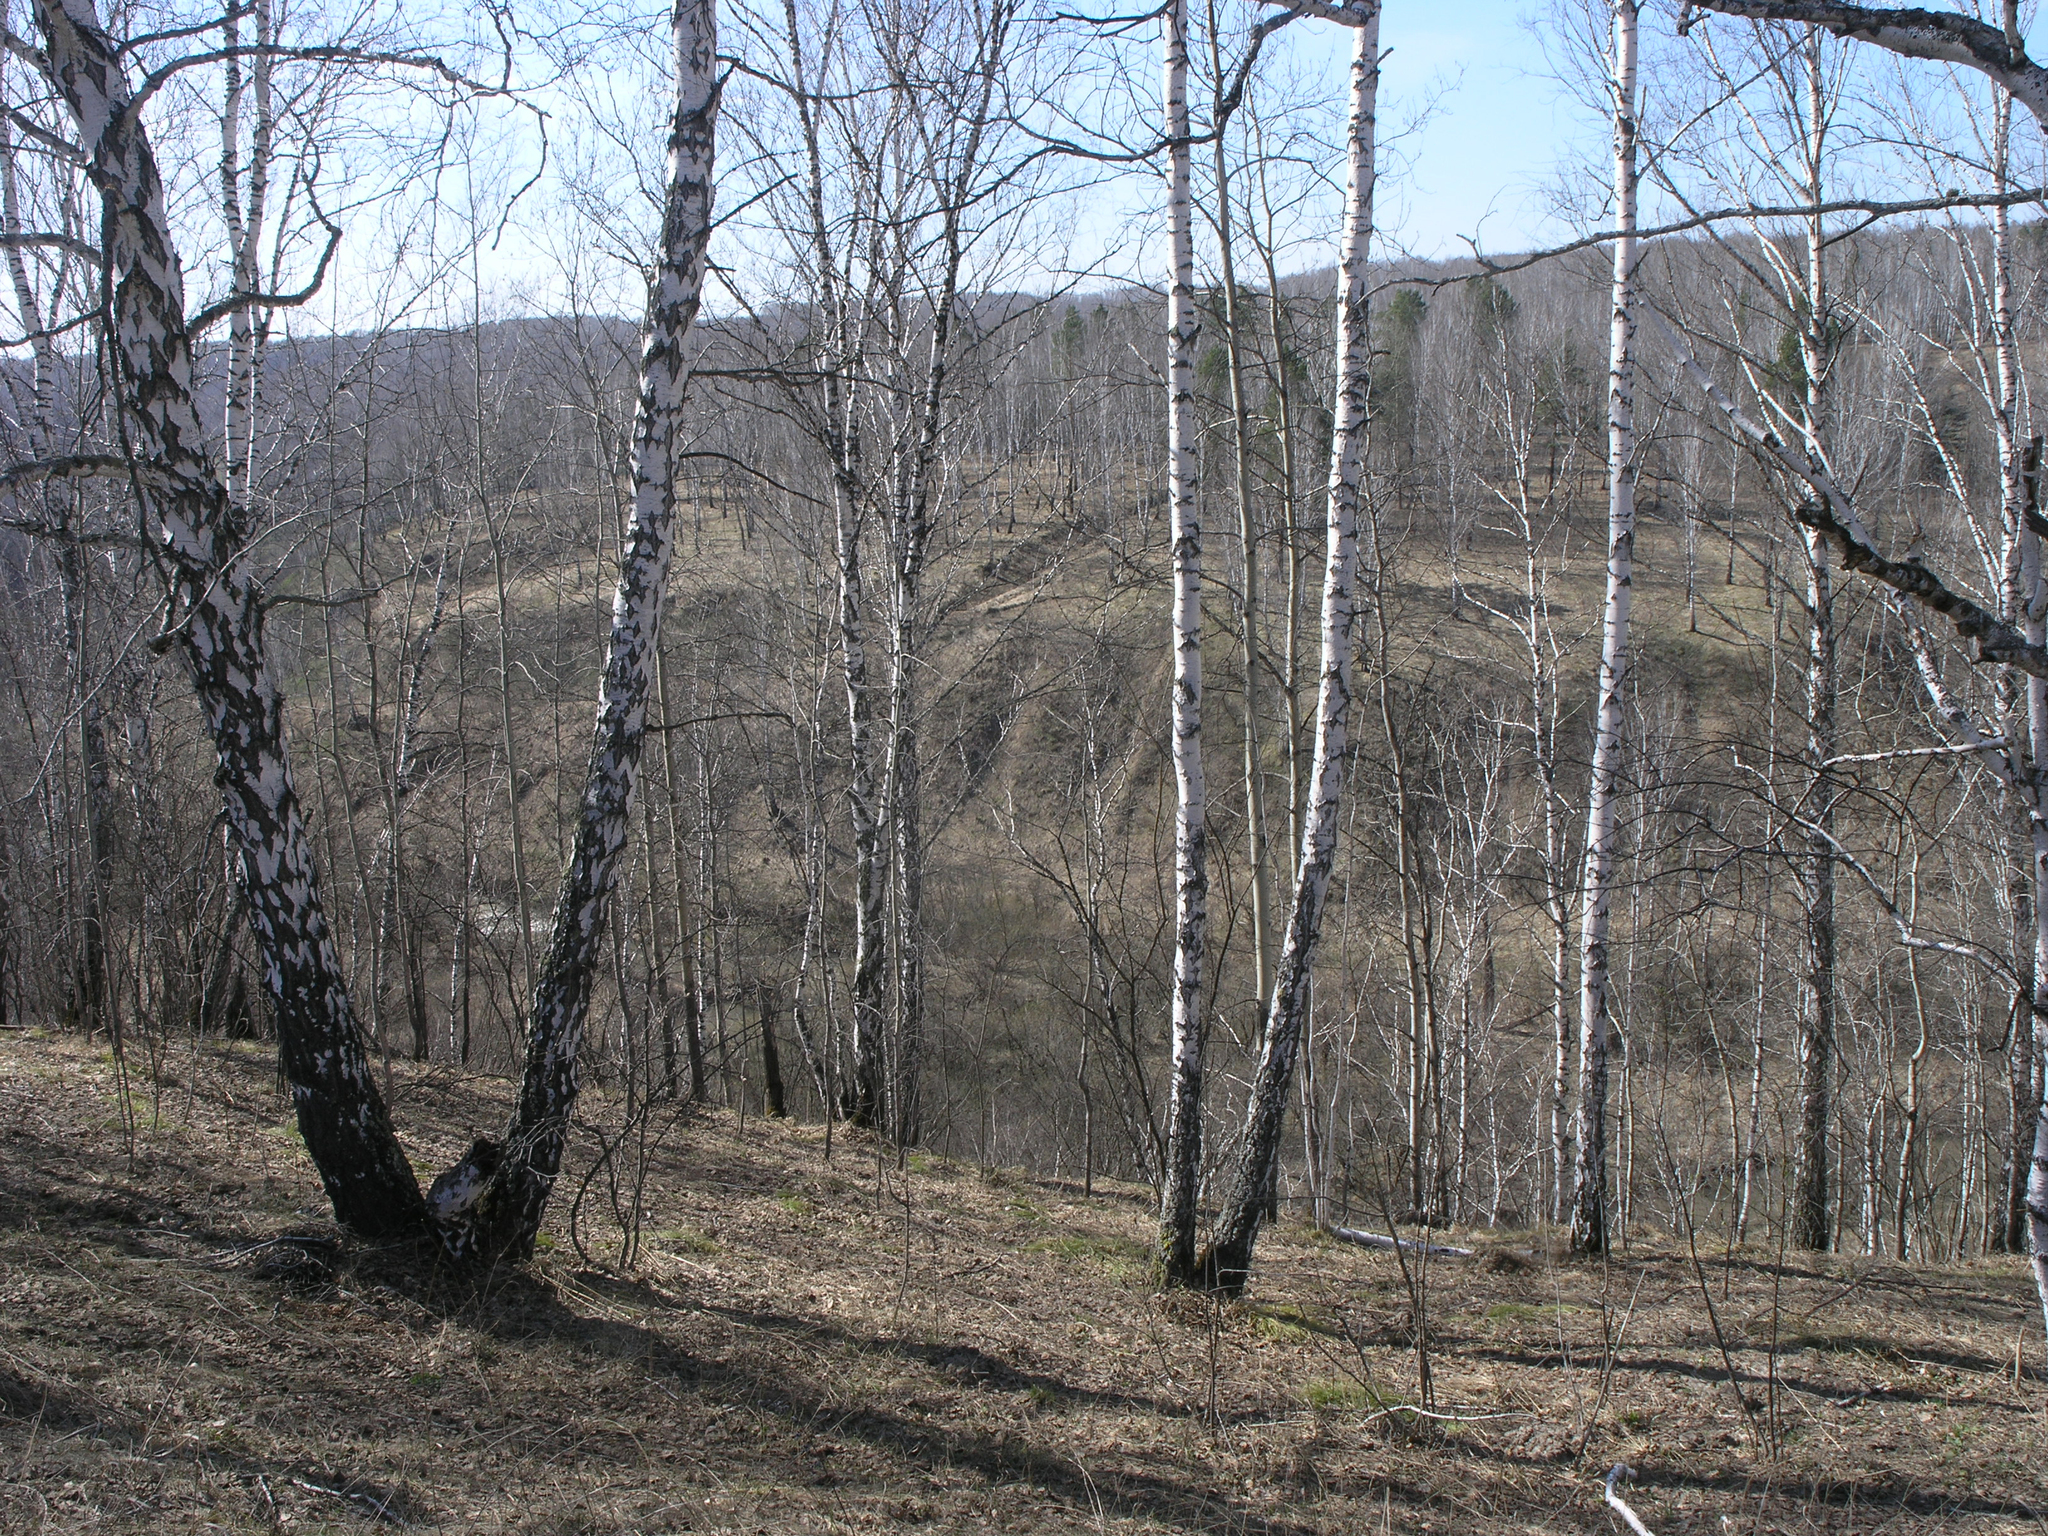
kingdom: Plantae
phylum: Tracheophyta
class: Magnoliopsida
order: Fagales
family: Betulaceae
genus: Betula
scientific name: Betula pendula
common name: Silver birch
